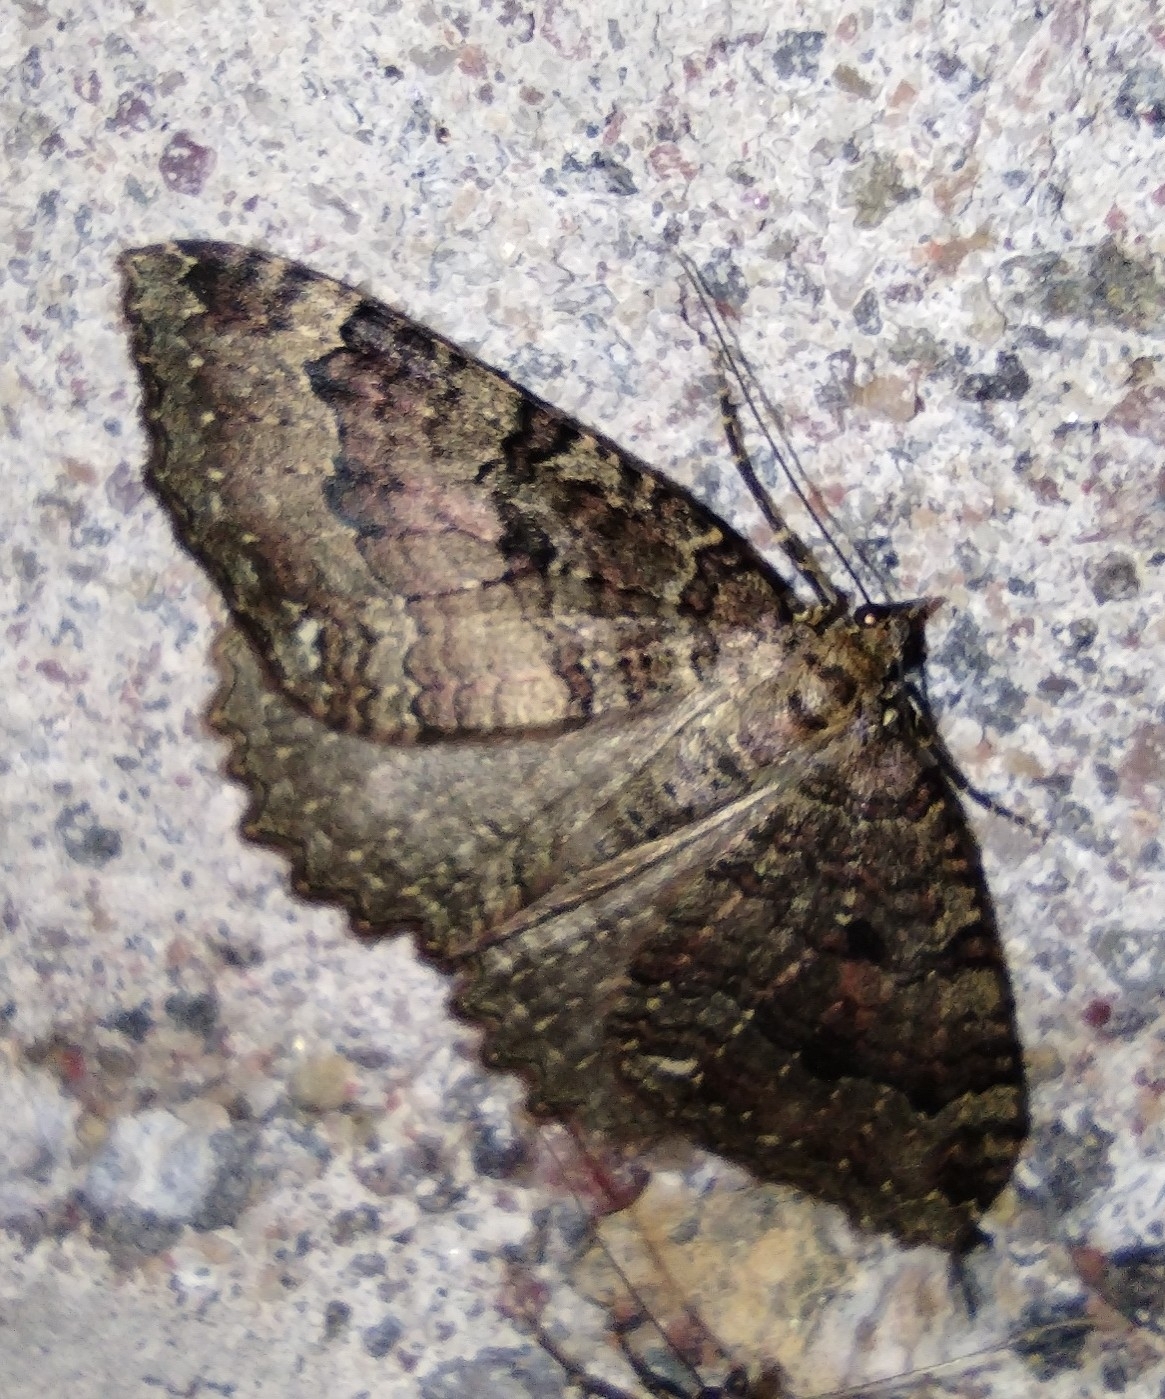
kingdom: Animalia
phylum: Arthropoda
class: Insecta
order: Lepidoptera
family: Geometridae
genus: Triphosa
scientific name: Triphosa dubitata
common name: Tissue
